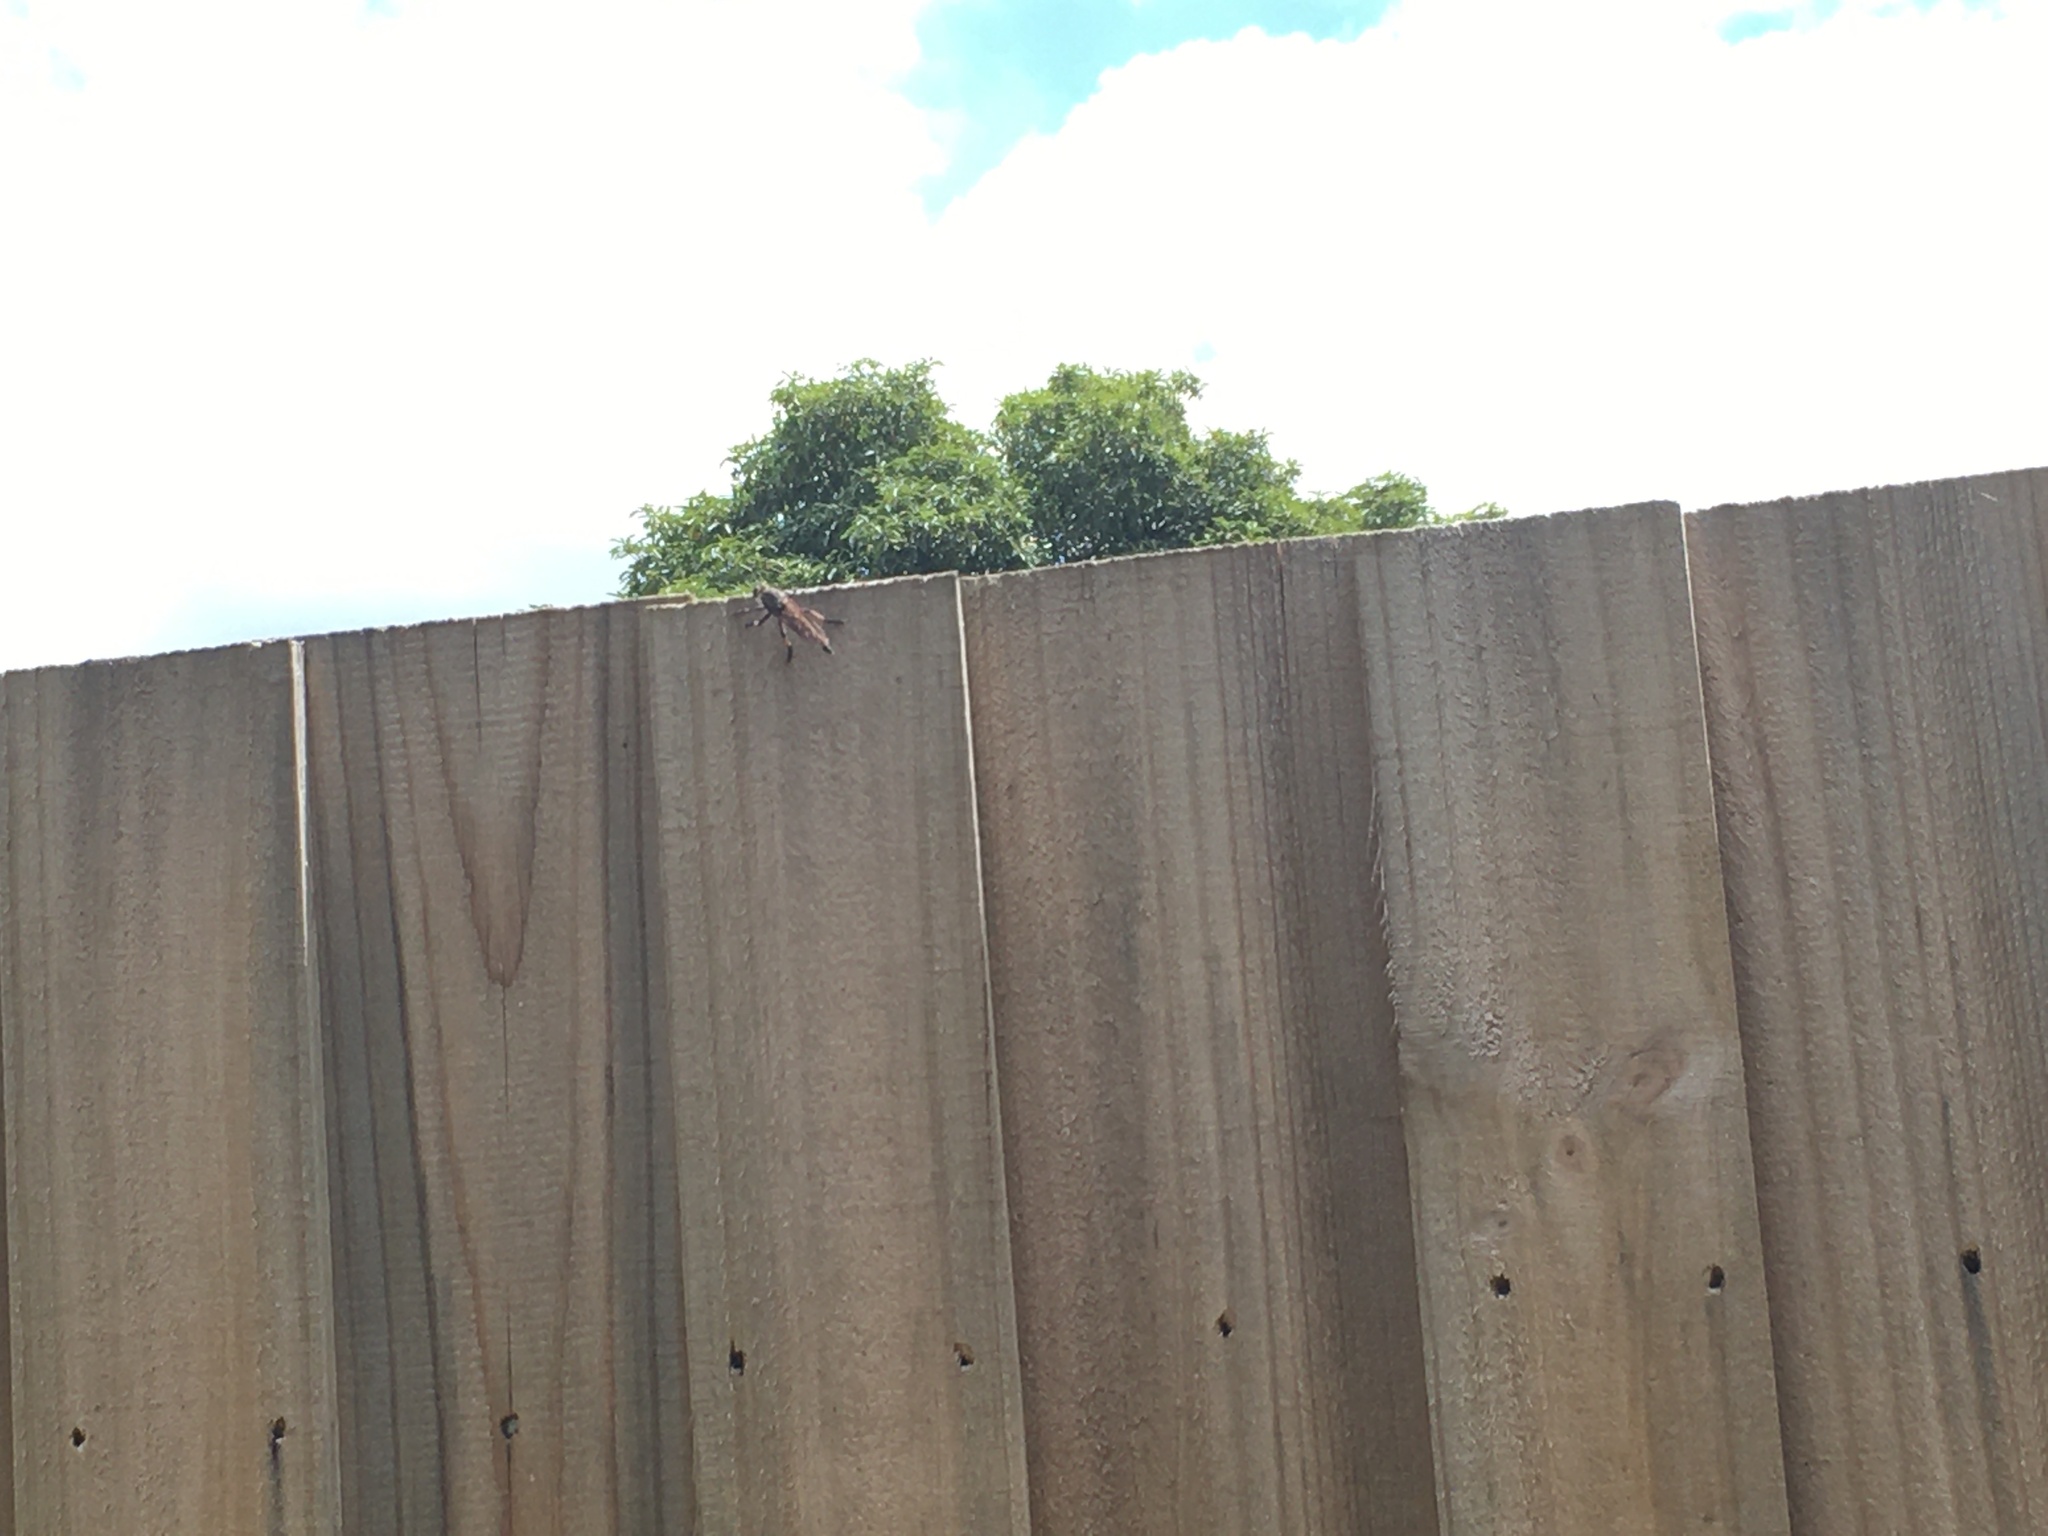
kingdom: Animalia
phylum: Arthropoda
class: Insecta
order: Diptera
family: Asilidae
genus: Neoaratus
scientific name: Neoaratus hercules
